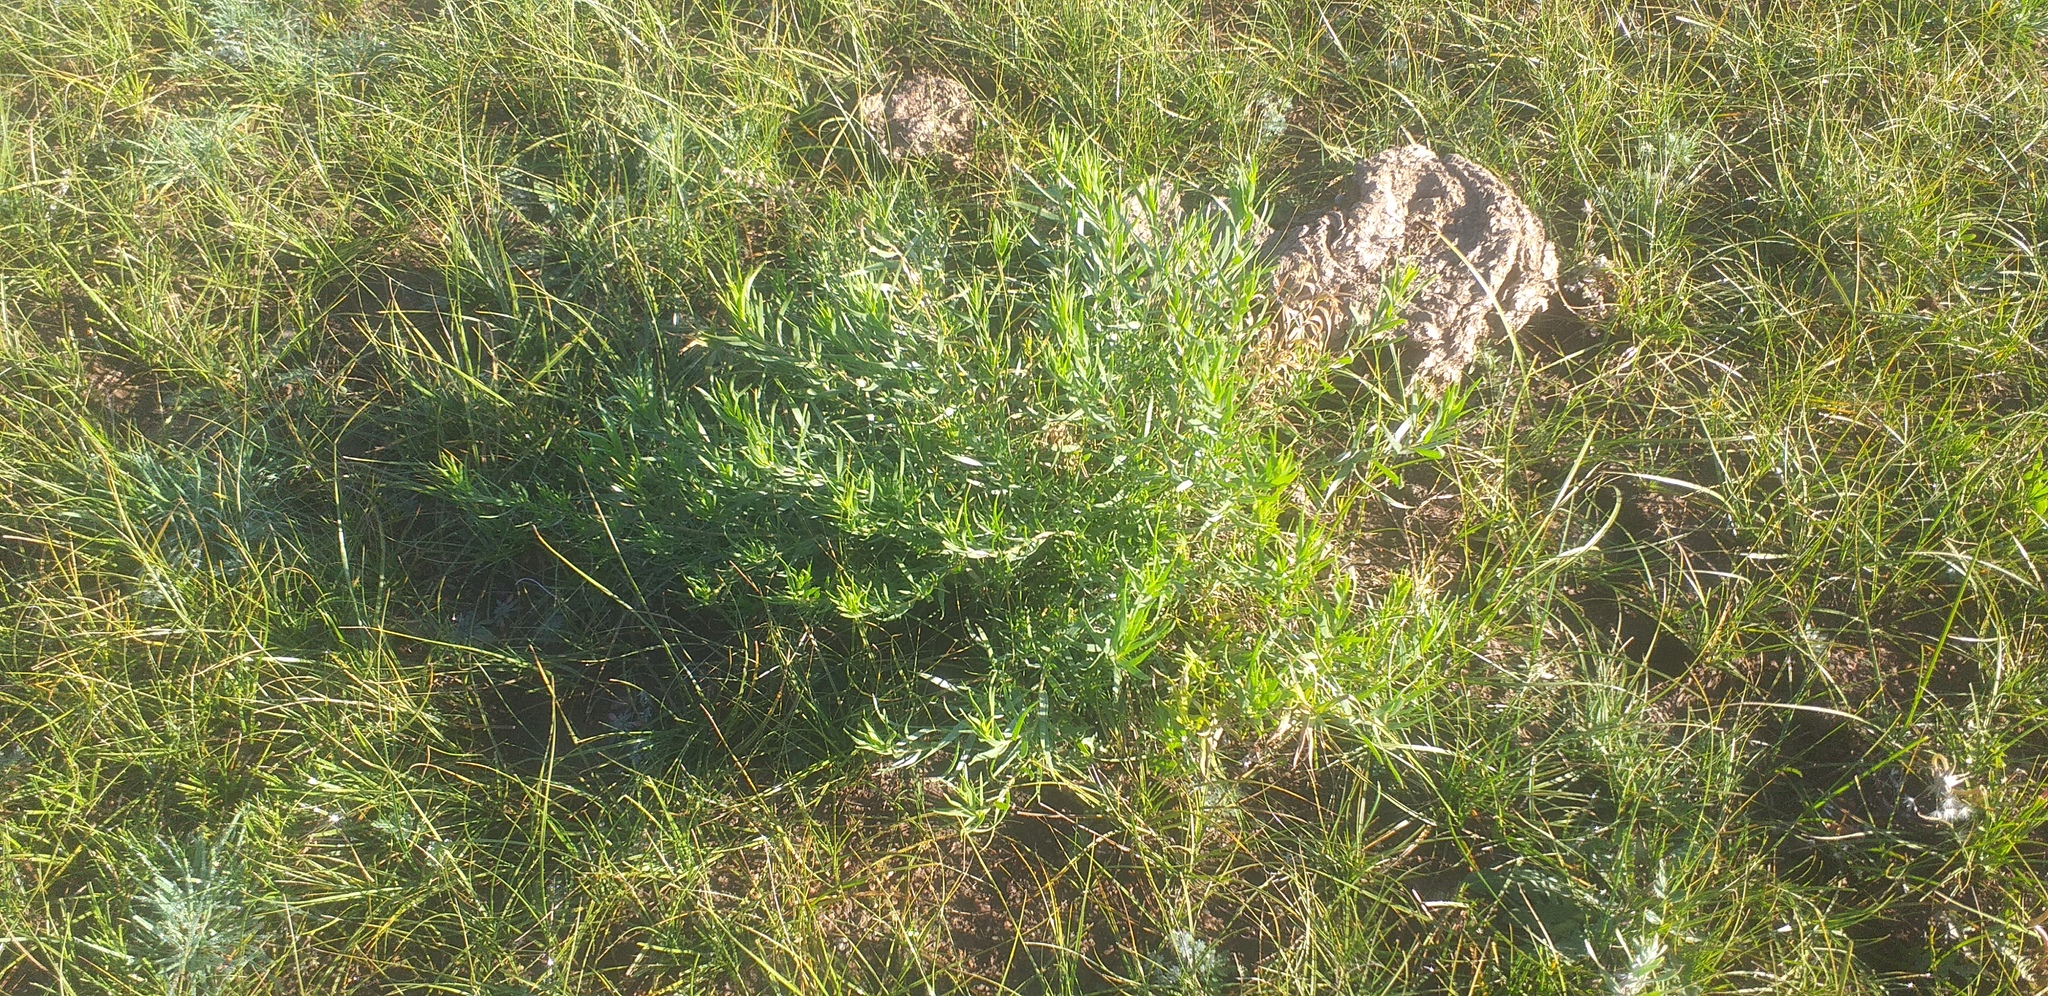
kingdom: Plantae
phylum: Tracheophyta
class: Magnoliopsida
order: Asterales
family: Asteraceae
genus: Artemisia
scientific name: Artemisia dracunculus
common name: Tarragon
